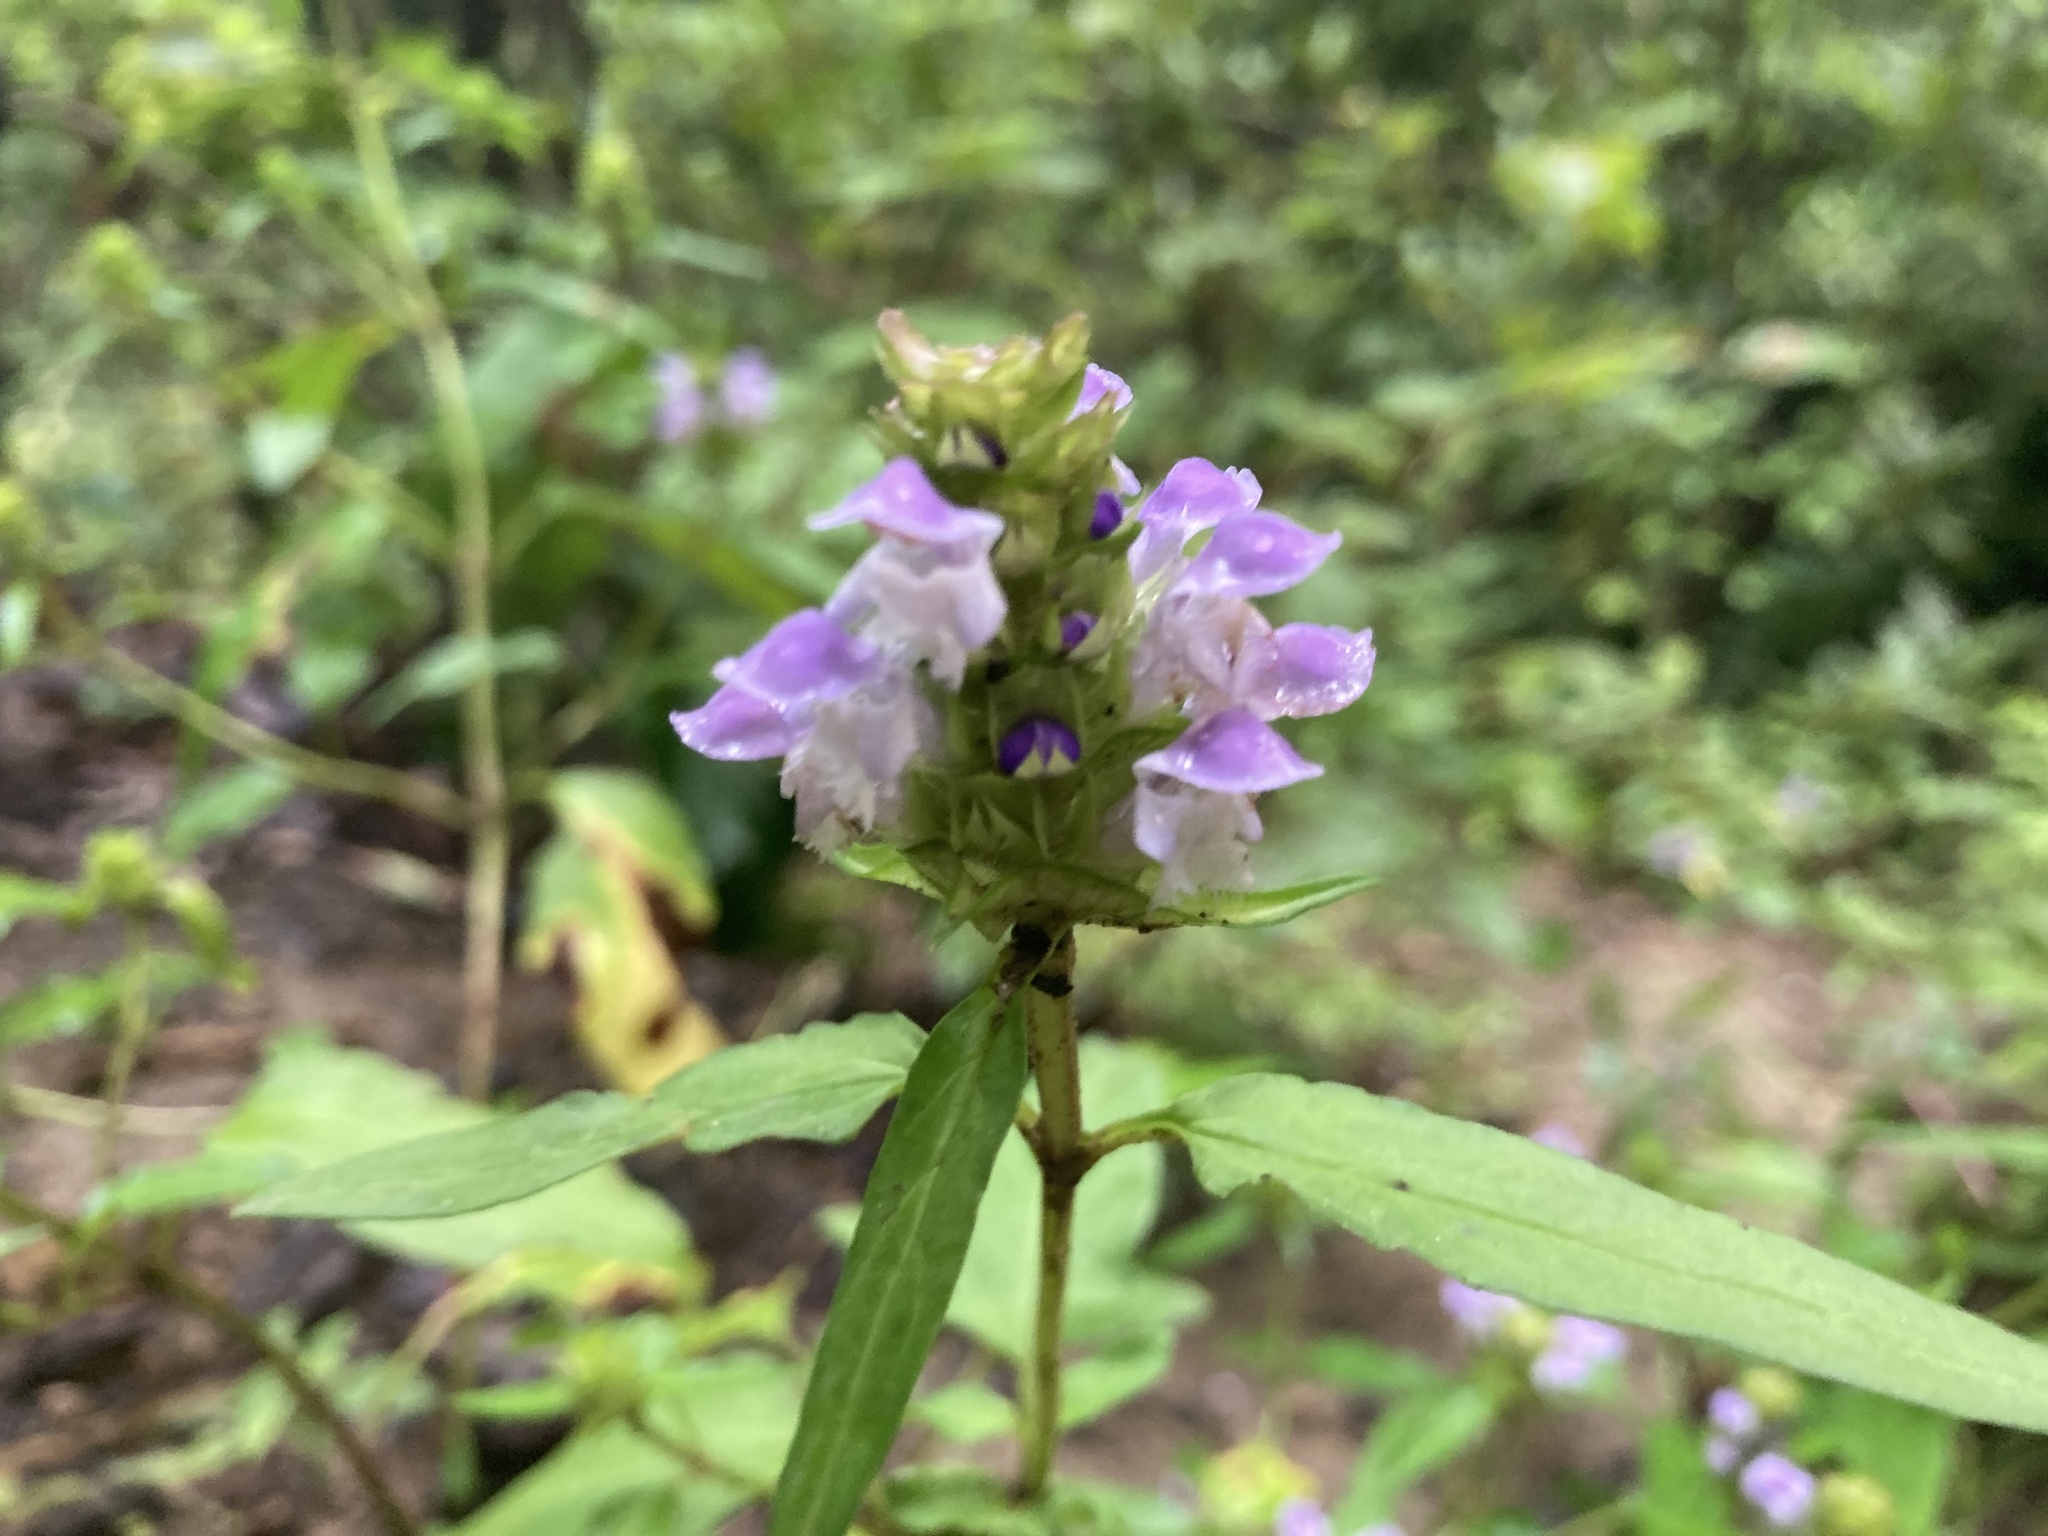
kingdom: Plantae
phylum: Tracheophyta
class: Magnoliopsida
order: Lamiales
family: Lamiaceae
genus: Prunella
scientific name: Prunella vulgaris
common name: Heal-all
